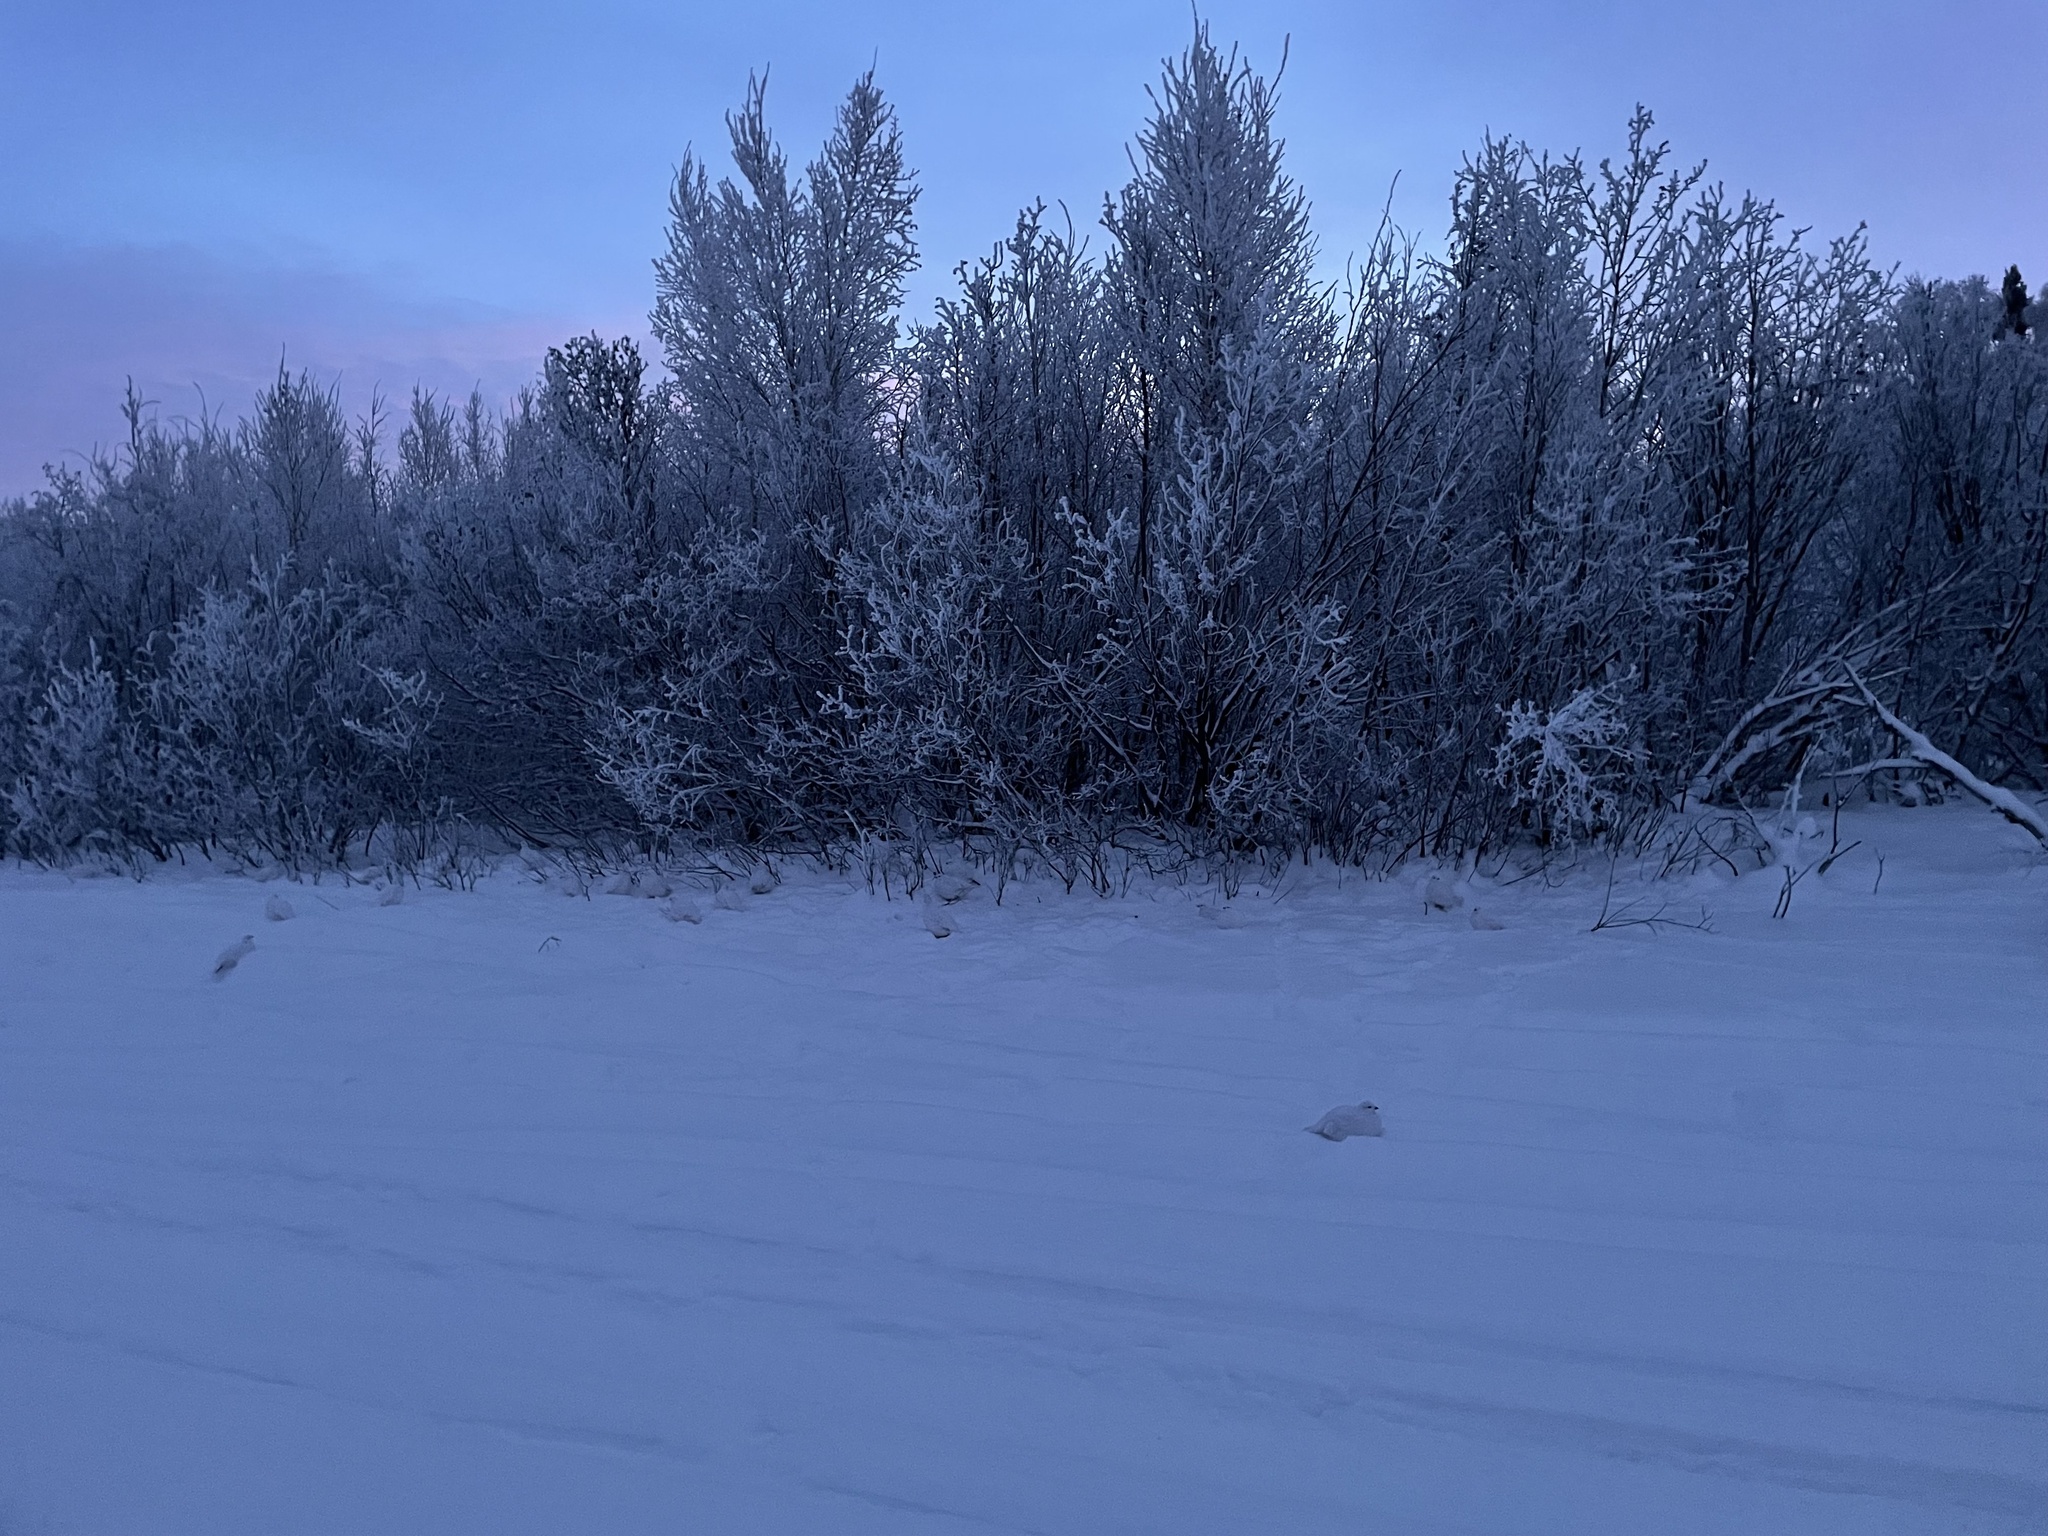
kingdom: Animalia
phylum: Chordata
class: Aves
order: Galliformes
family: Phasianidae
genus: Lagopus
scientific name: Lagopus lagopus
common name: Willow ptarmigan
